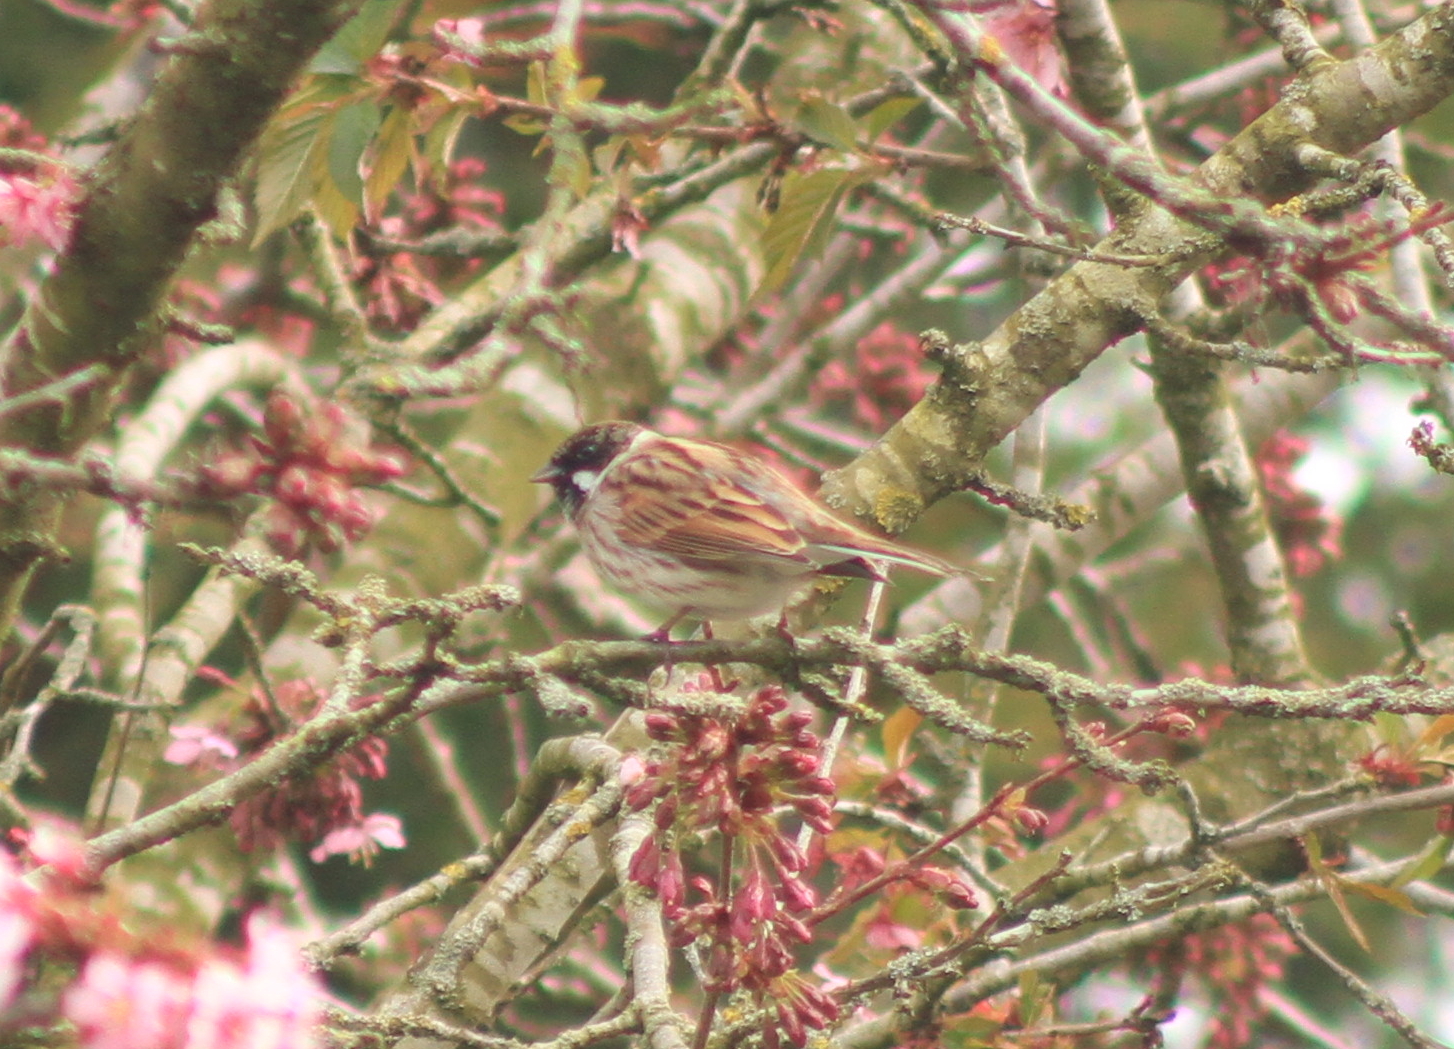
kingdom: Animalia
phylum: Chordata
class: Aves
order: Passeriformes
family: Emberizidae
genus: Emberiza
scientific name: Emberiza schoeniclus
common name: Reed bunting
